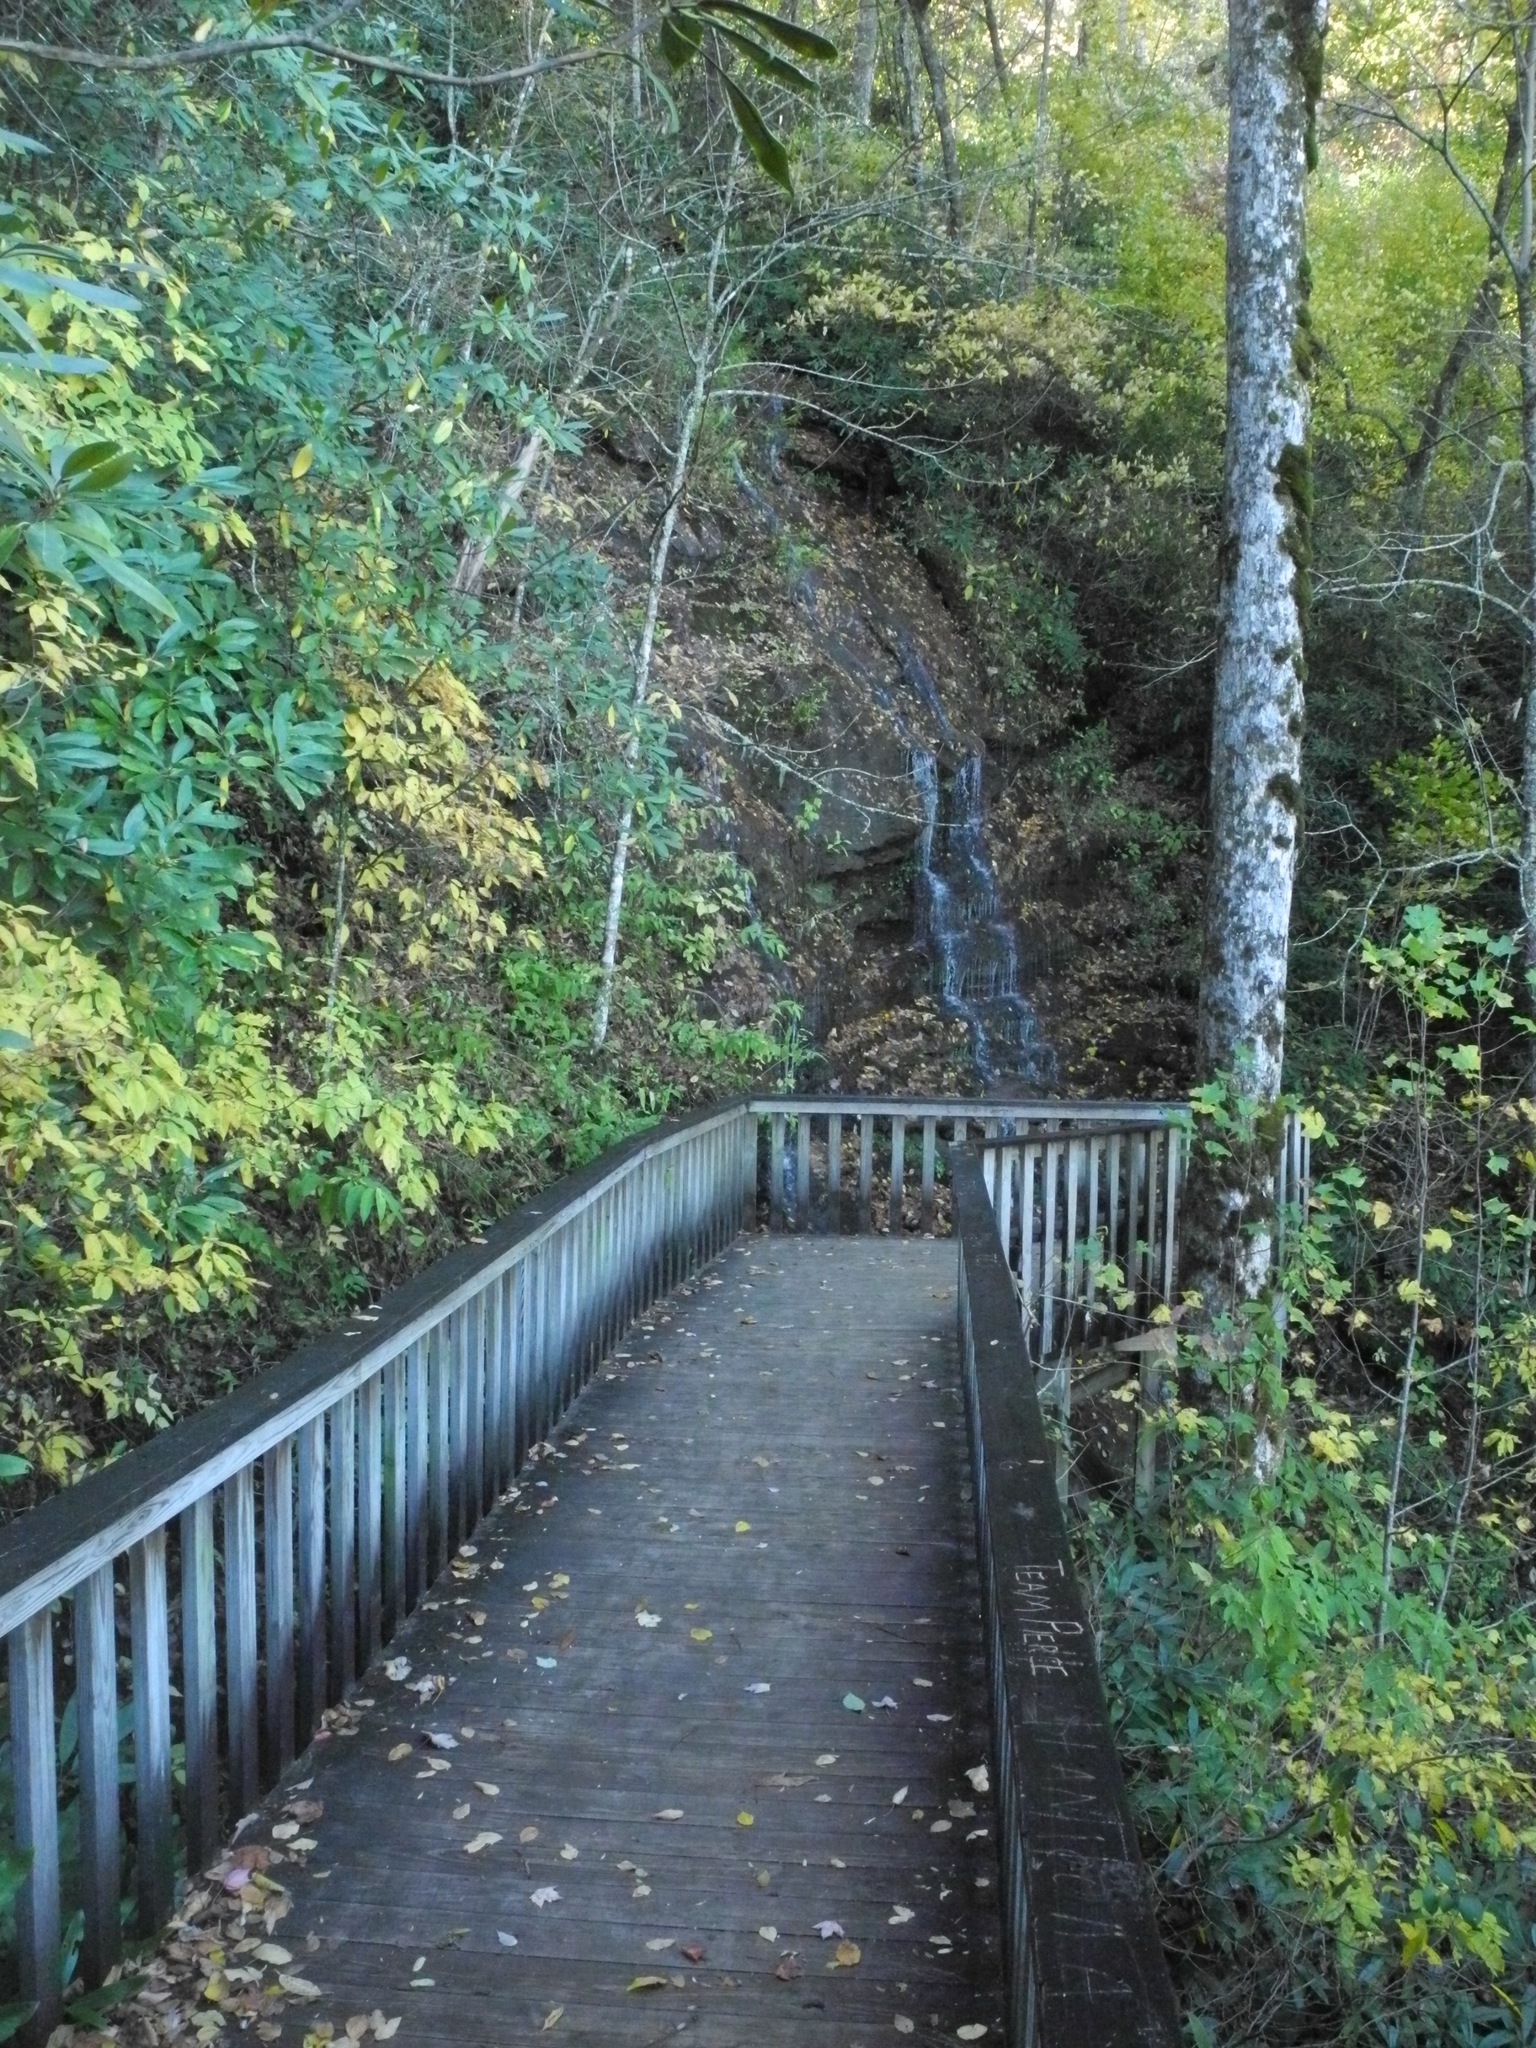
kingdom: Plantae
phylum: Tracheophyta
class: Magnoliopsida
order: Ericales
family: Clethraceae
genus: Clethra
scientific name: Clethra acuminata
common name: Mountain sweet pepperbush
